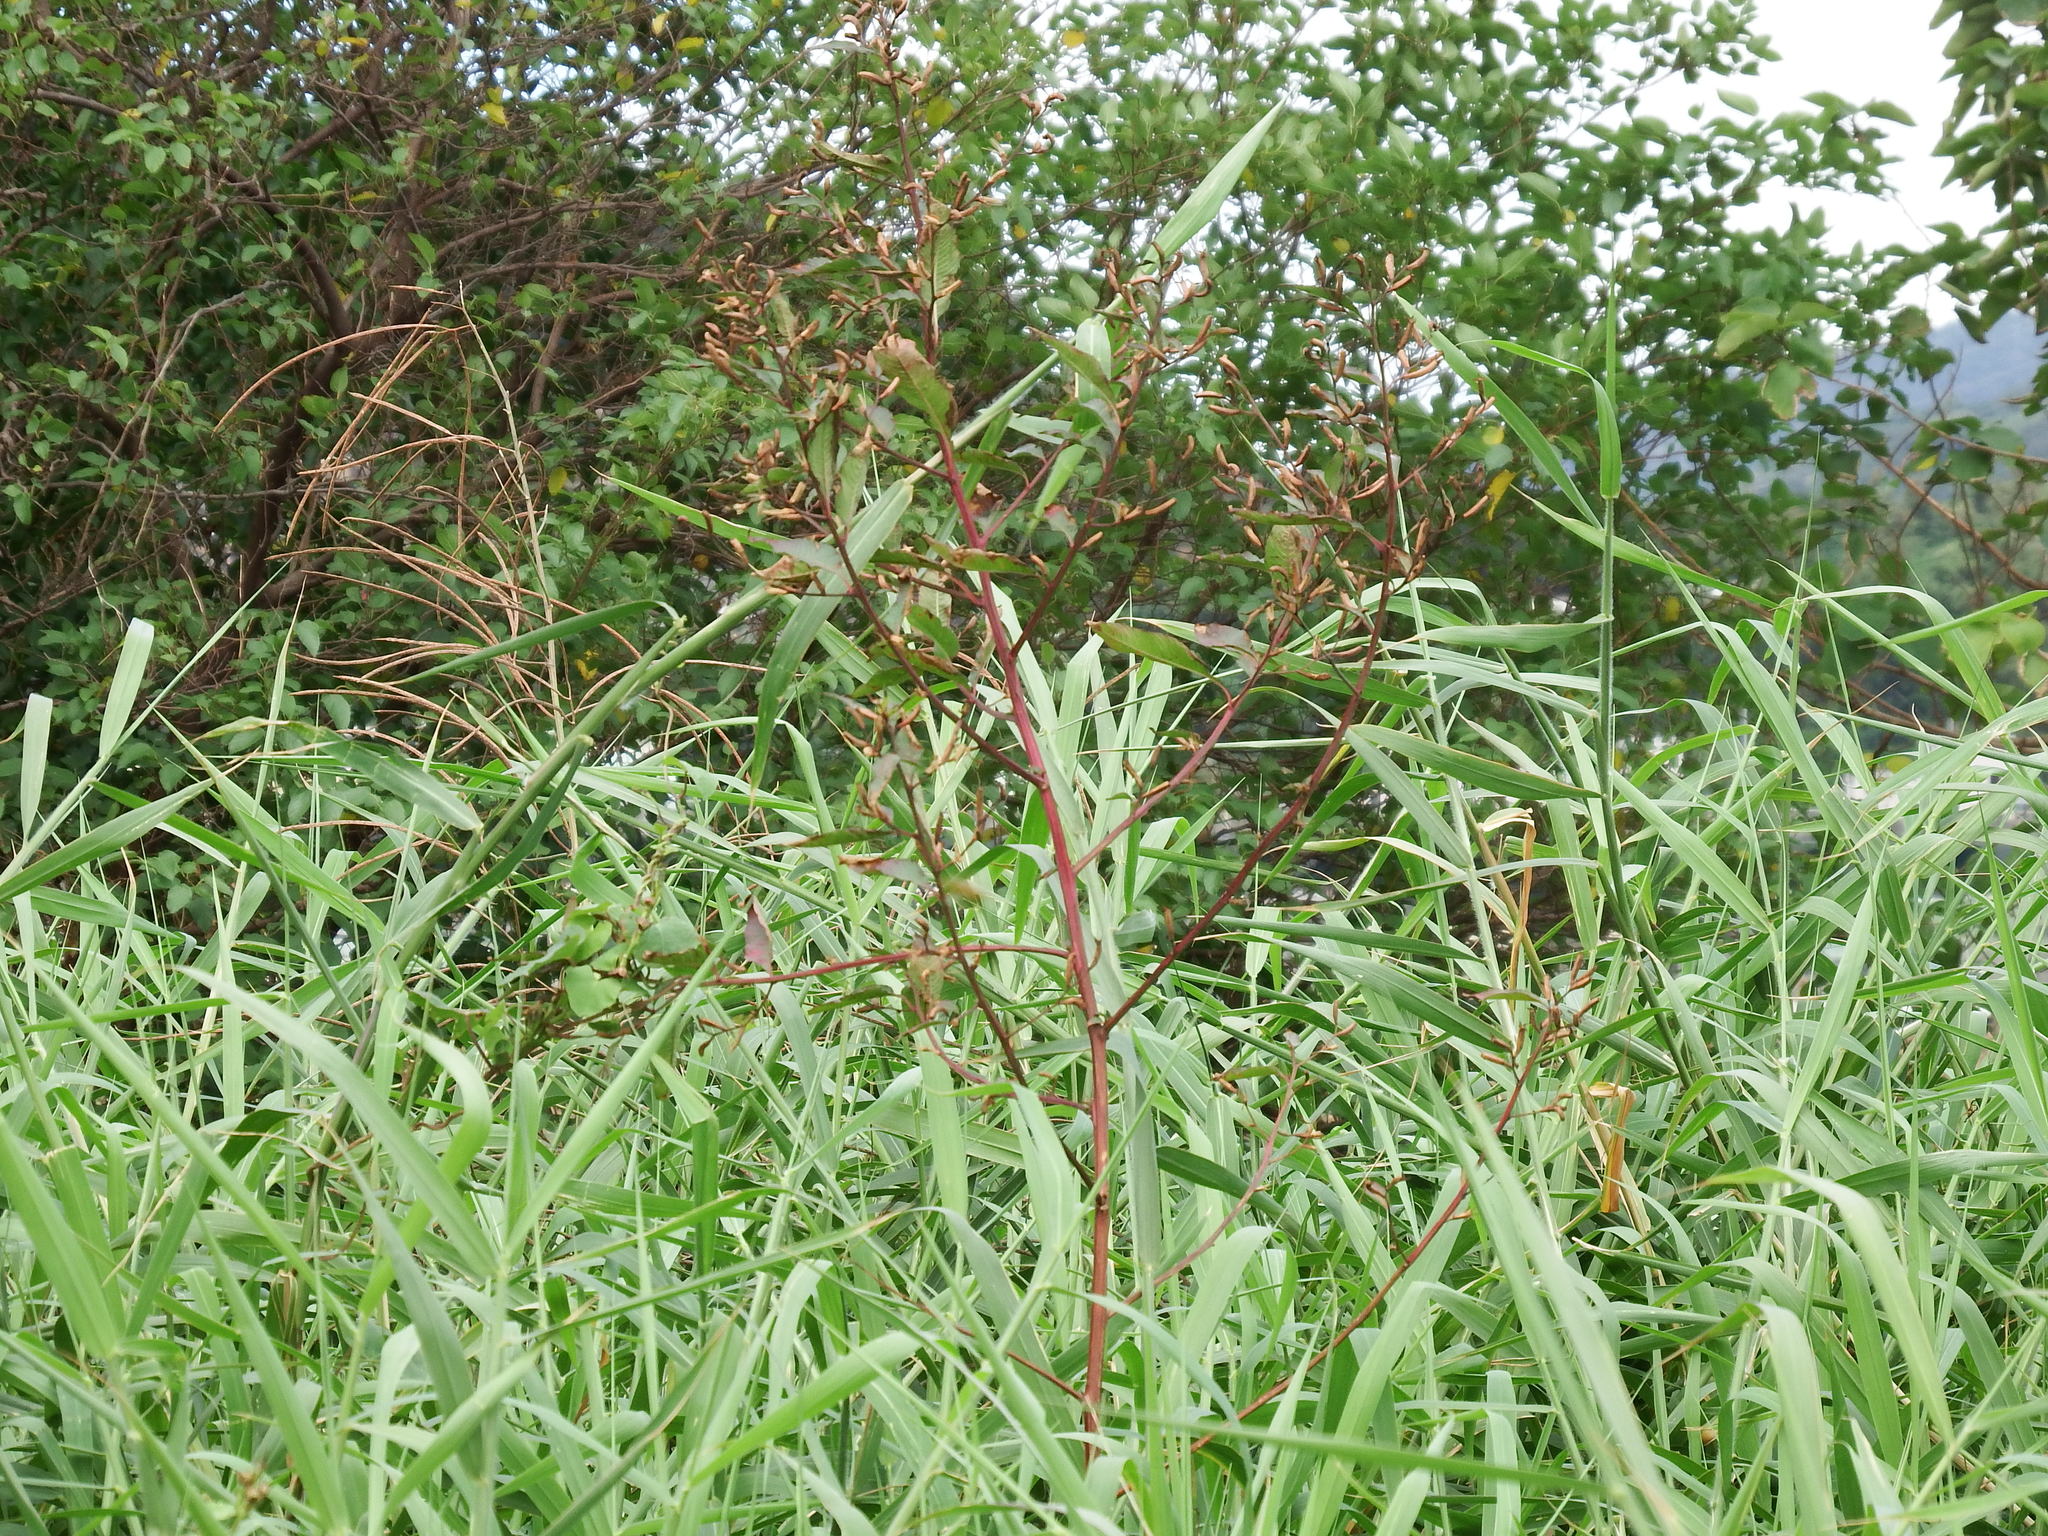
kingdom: Plantae
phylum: Tracheophyta
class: Magnoliopsida
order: Myrtales
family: Onagraceae
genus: Ludwigia
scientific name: Ludwigia erecta
